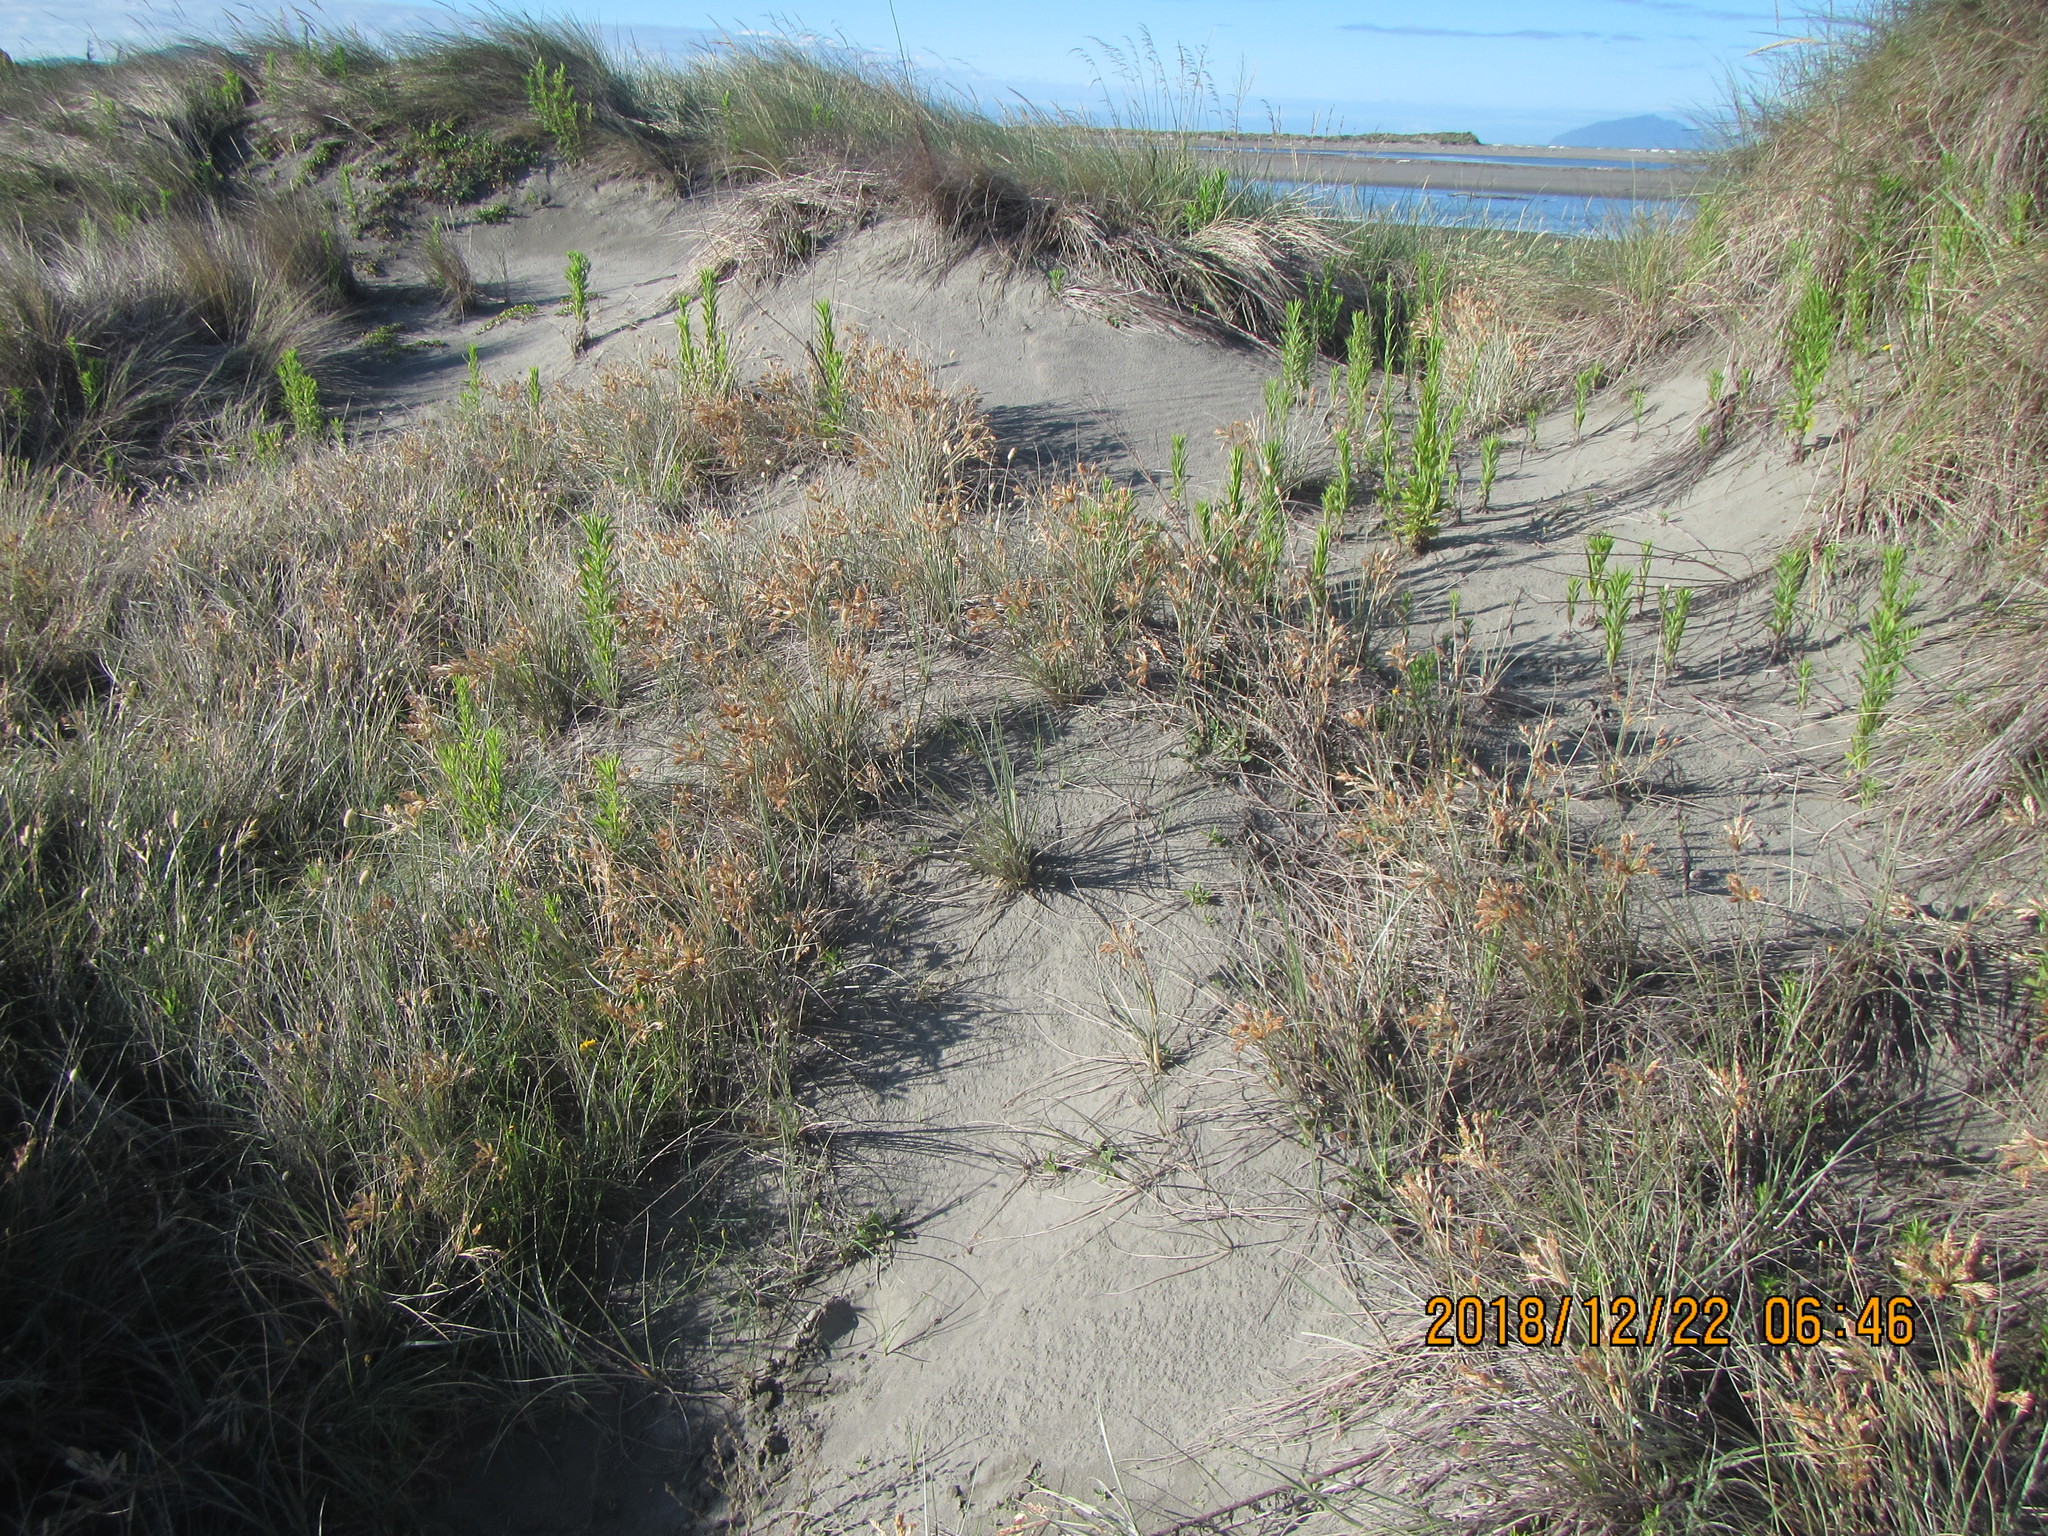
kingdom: Plantae
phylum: Tracheophyta
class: Liliopsida
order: Poales
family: Poaceae
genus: Spinifex
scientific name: Spinifex sericeus
